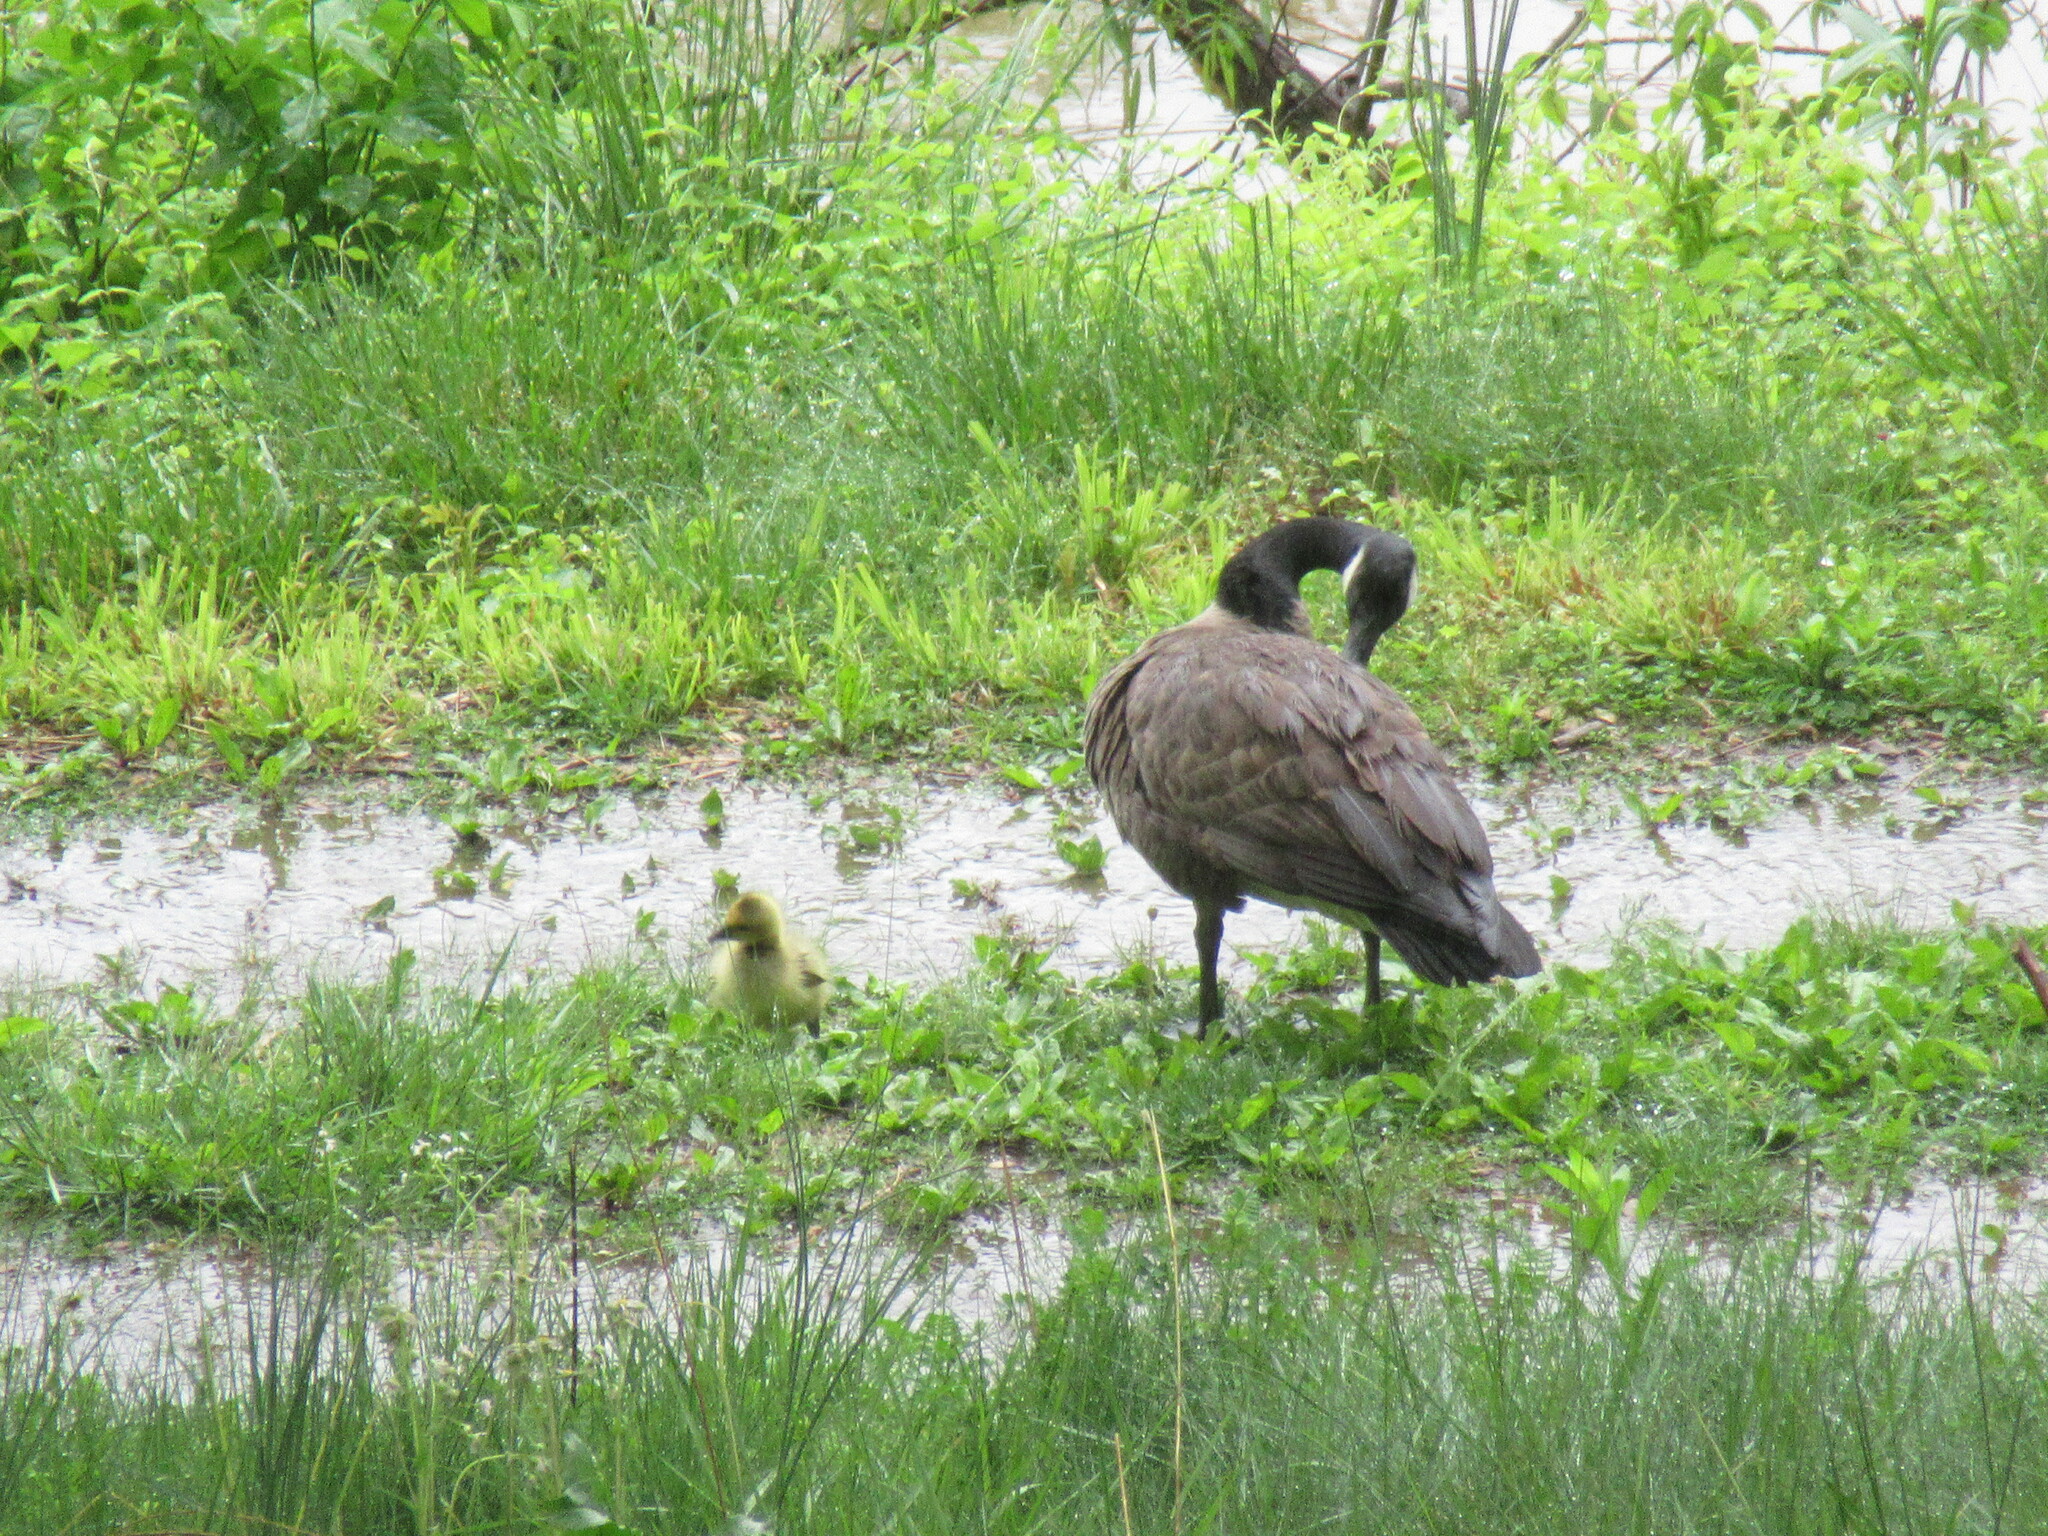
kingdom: Animalia
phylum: Chordata
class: Aves
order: Anseriformes
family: Anatidae
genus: Branta
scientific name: Branta canadensis
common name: Canada goose
